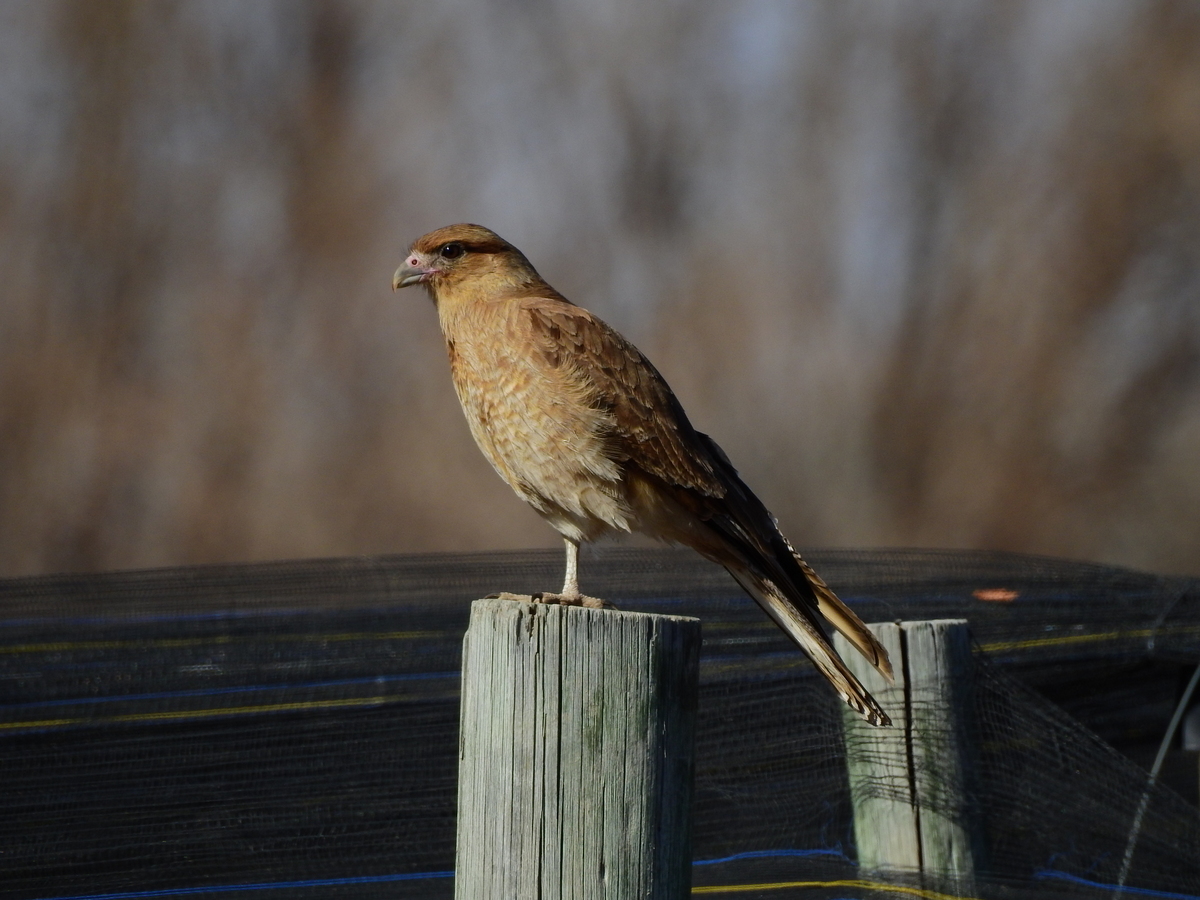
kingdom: Animalia
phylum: Chordata
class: Aves
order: Falconiformes
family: Falconidae
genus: Daptrius
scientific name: Daptrius
